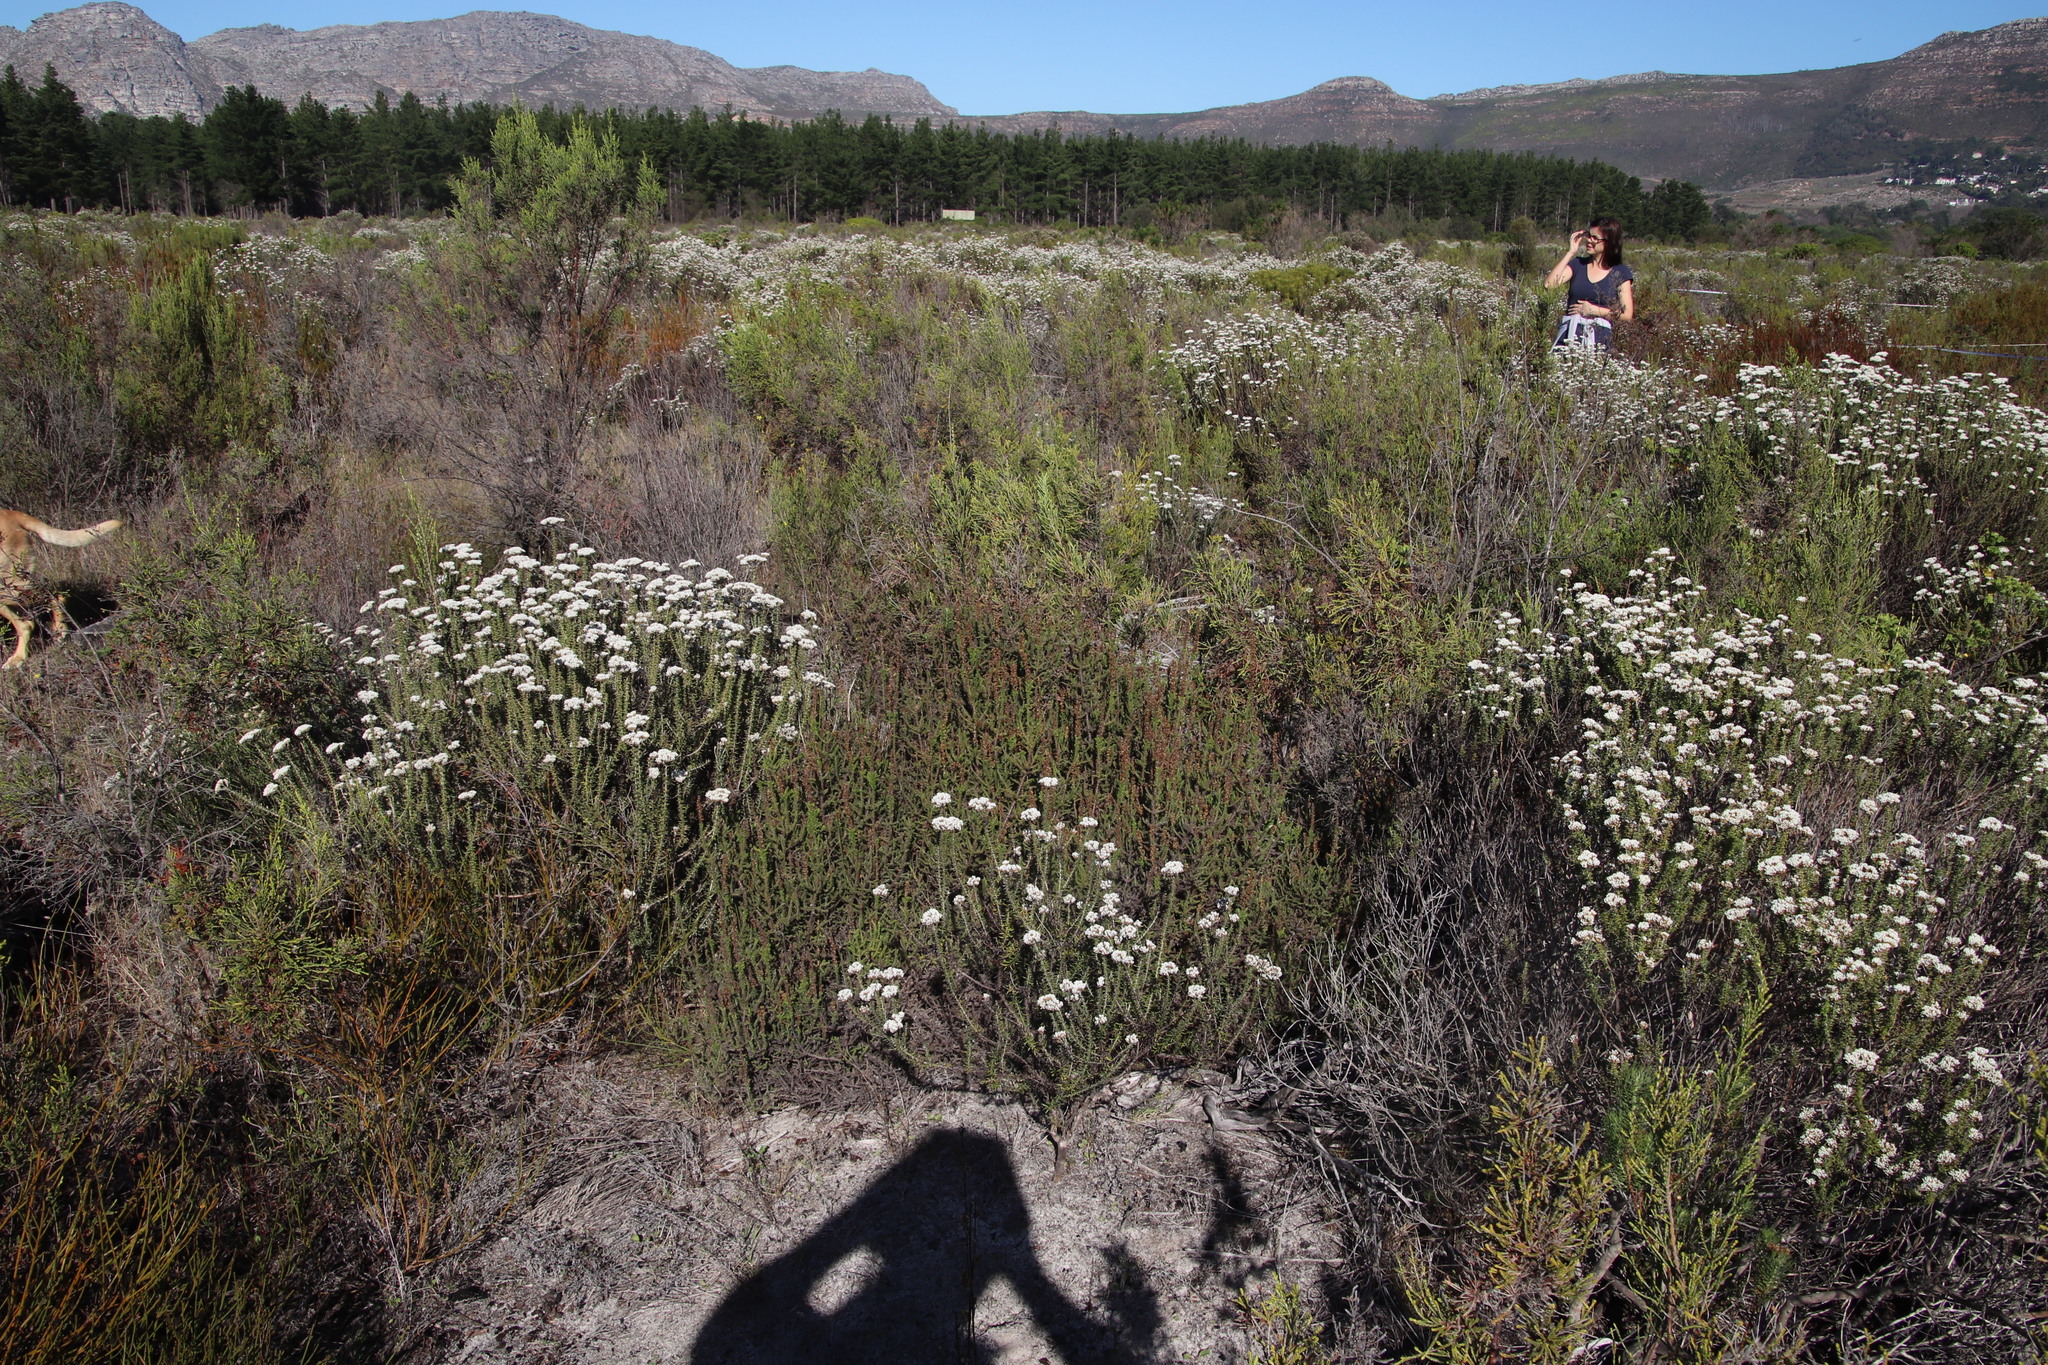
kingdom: Plantae
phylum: Tracheophyta
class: Magnoliopsida
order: Asterales
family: Asteraceae
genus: Seriphium
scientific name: Seriphium cinereum
